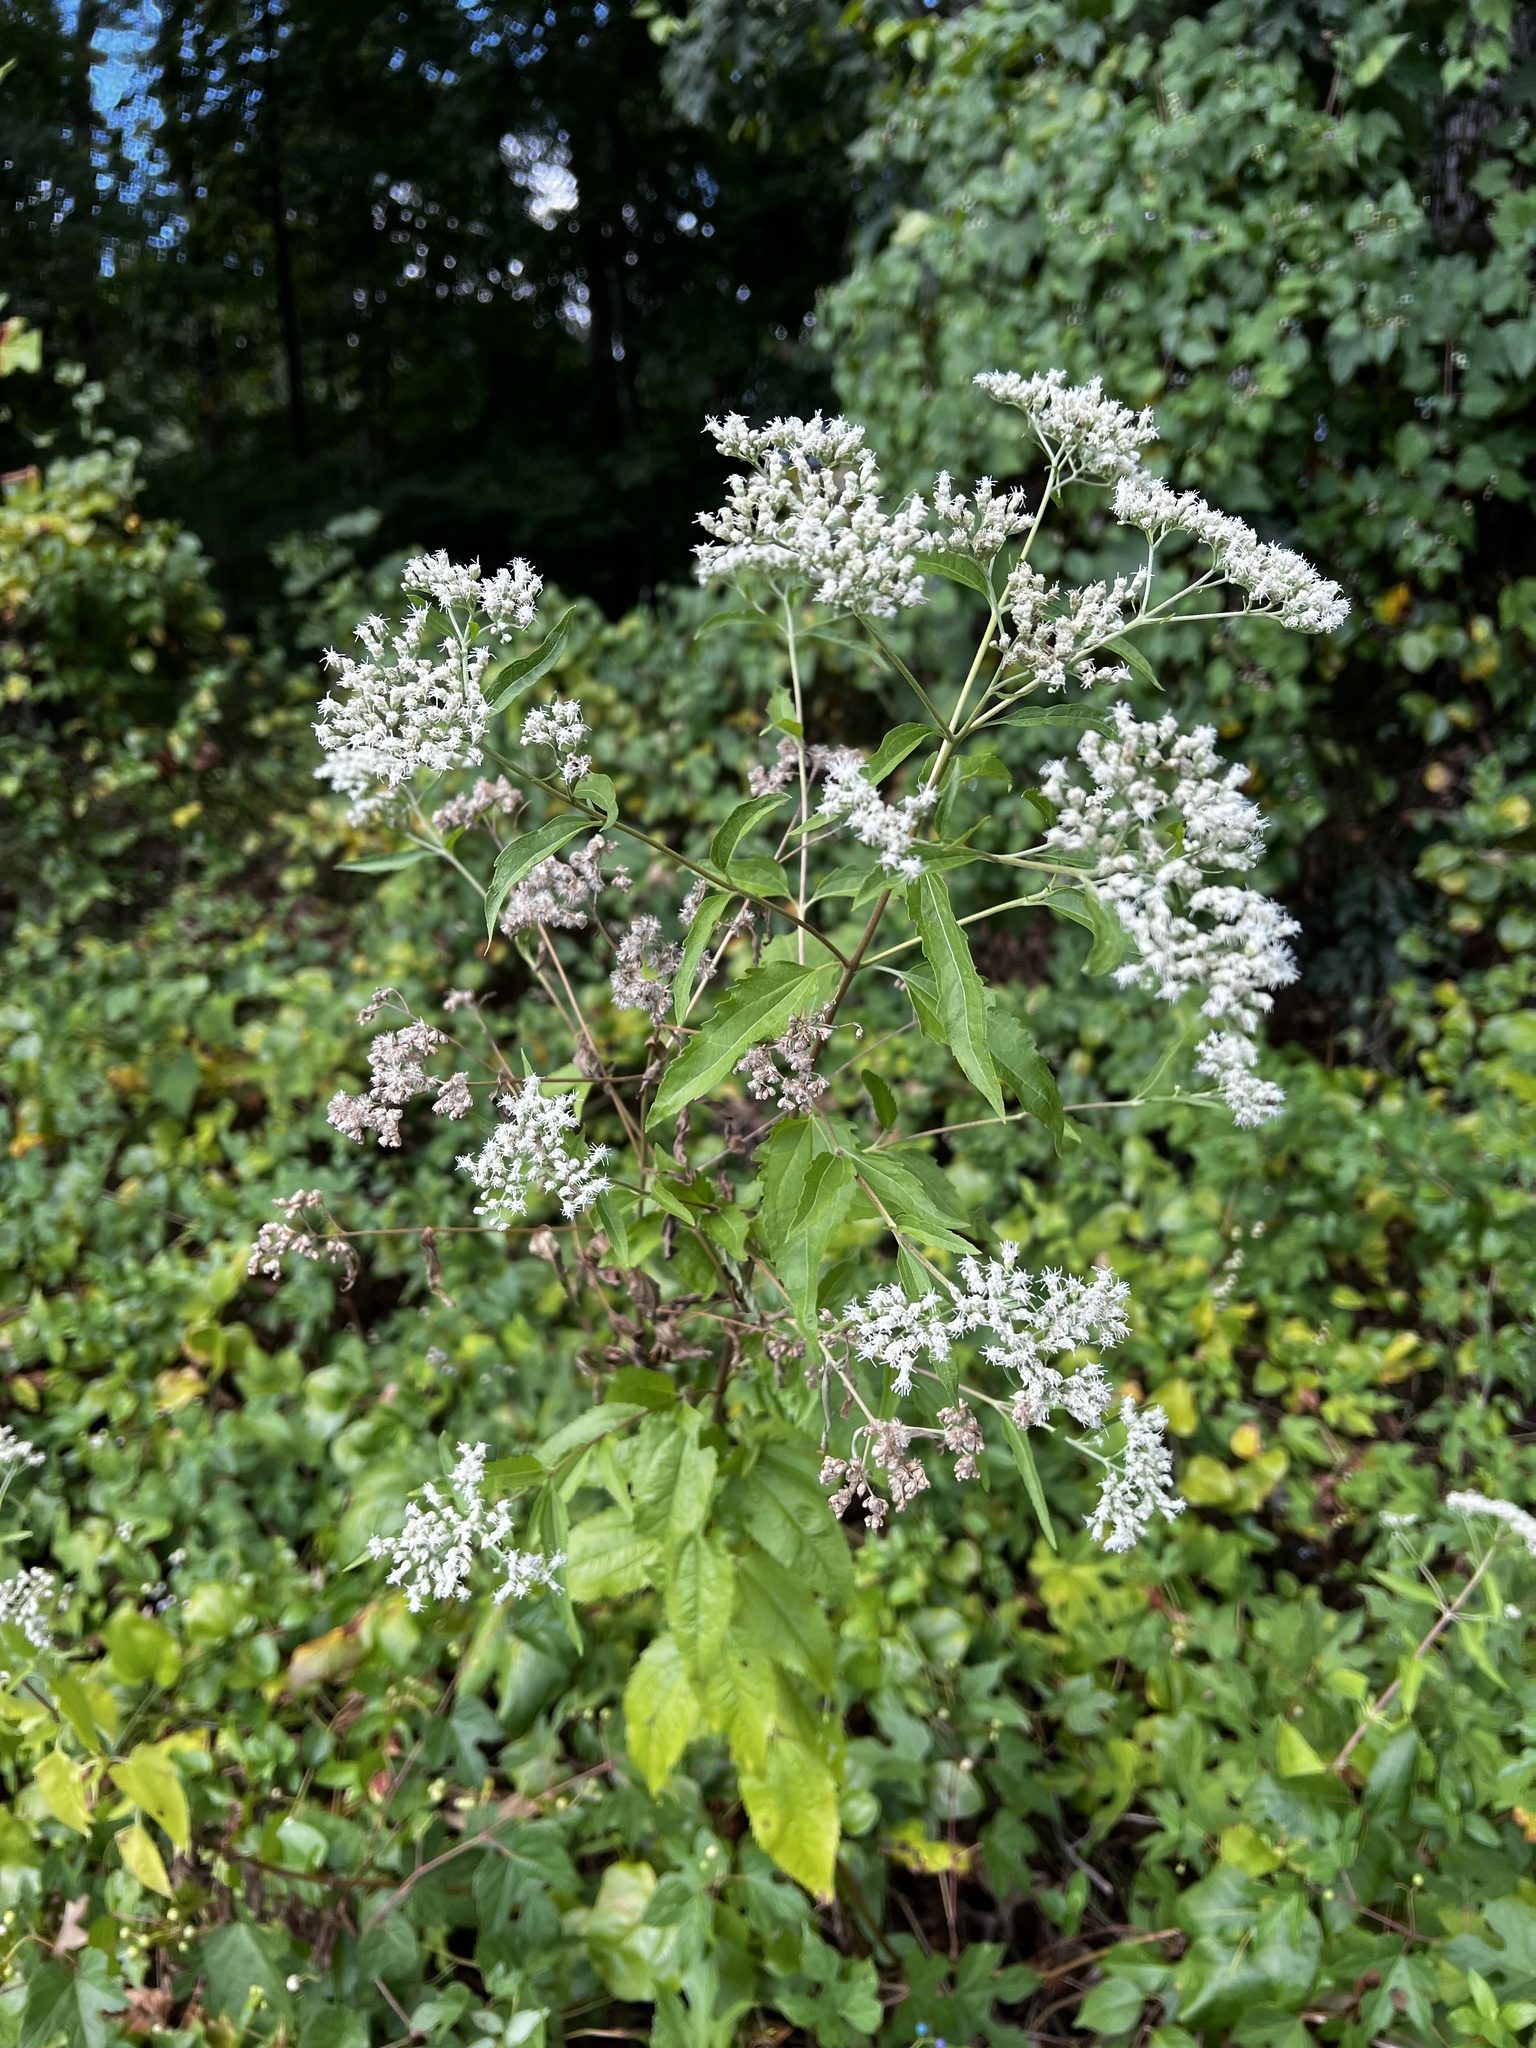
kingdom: Plantae
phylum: Tracheophyta
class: Magnoliopsida
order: Asterales
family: Asteraceae
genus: Eupatorium
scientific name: Eupatorium serotinum
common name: Late boneset
